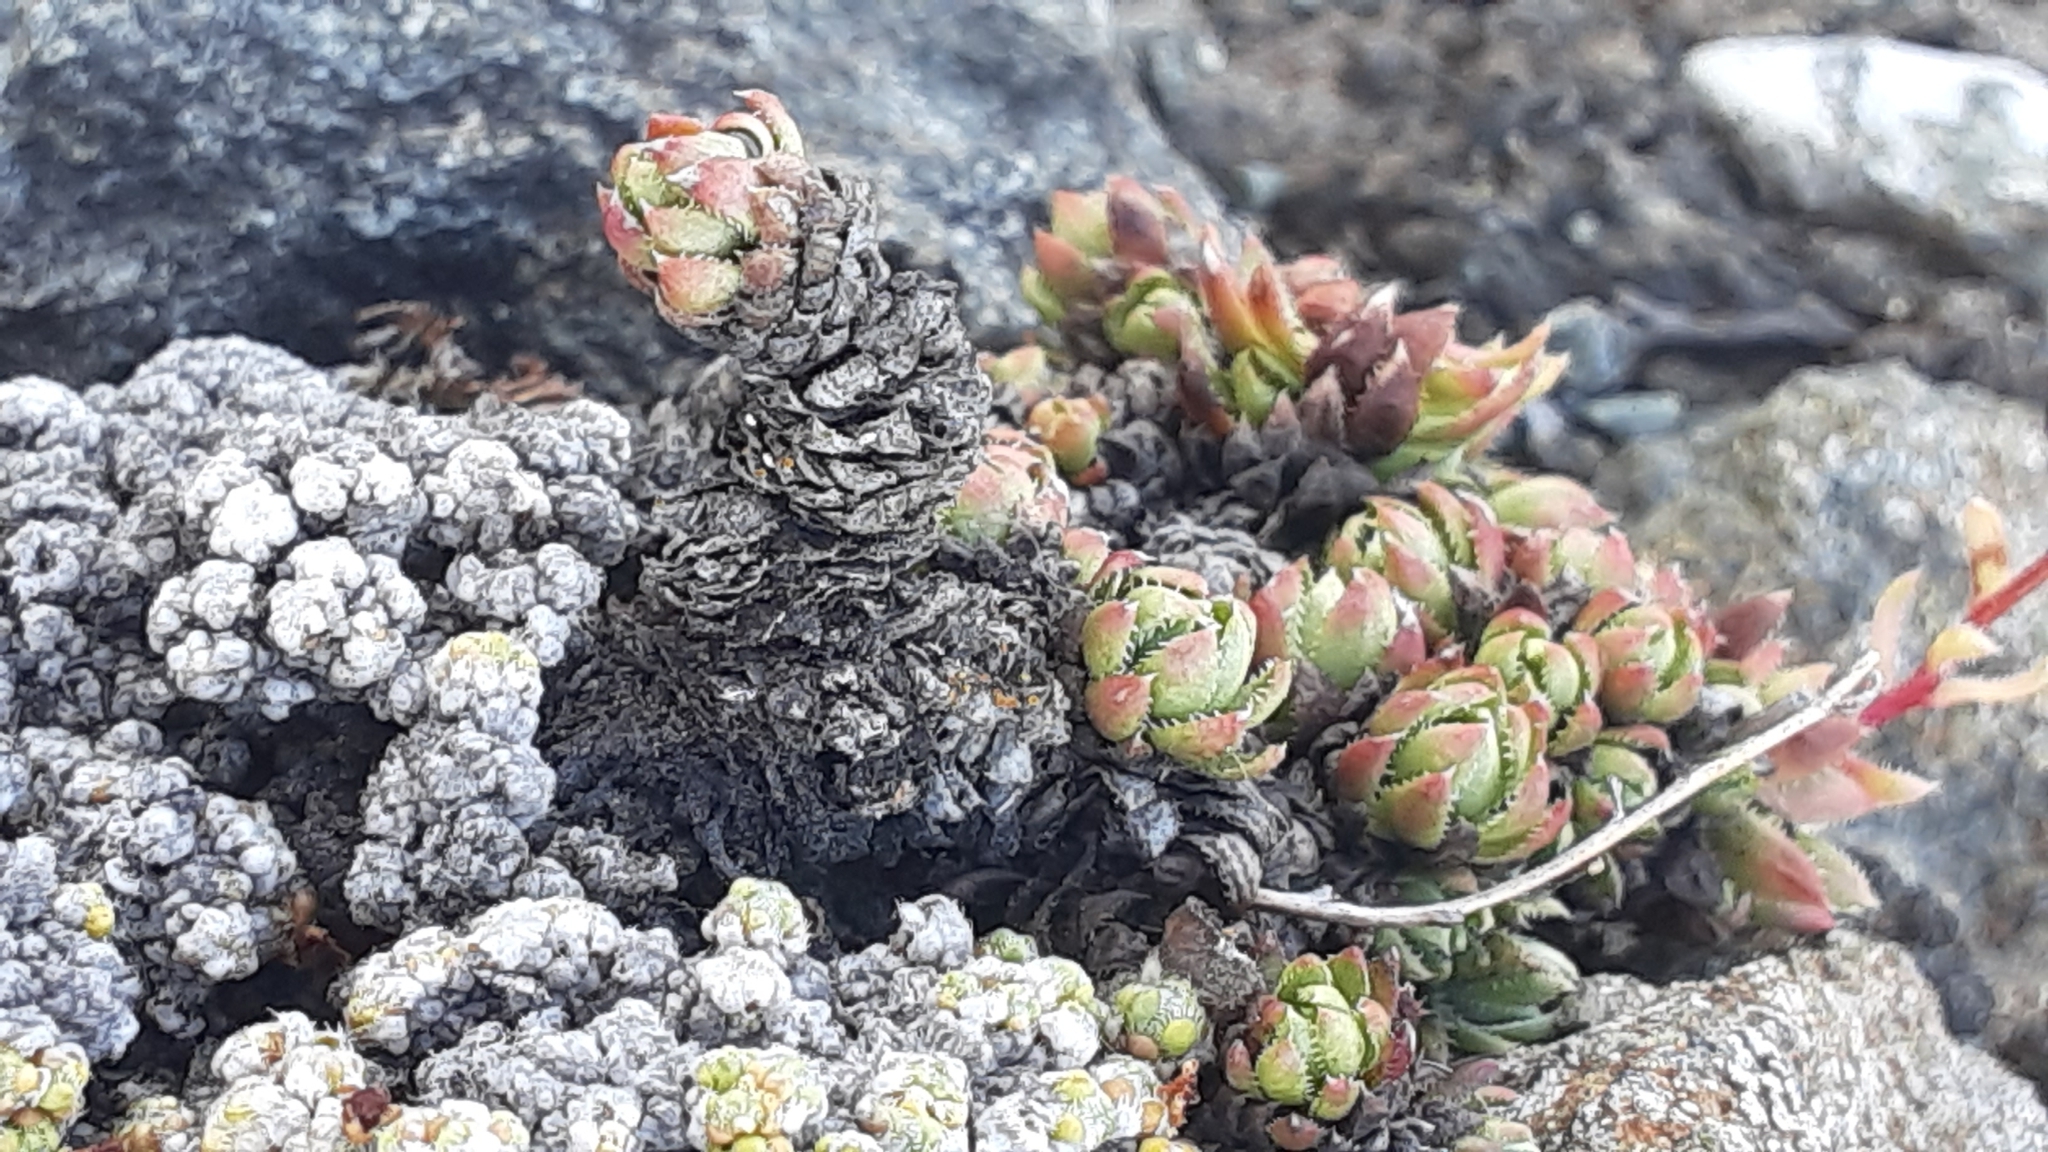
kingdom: Plantae
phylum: Tracheophyta
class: Magnoliopsida
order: Saxifragales
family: Saxifragaceae
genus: Saxifraga
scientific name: Saxifraga bronchialis
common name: Matted saxifrage
